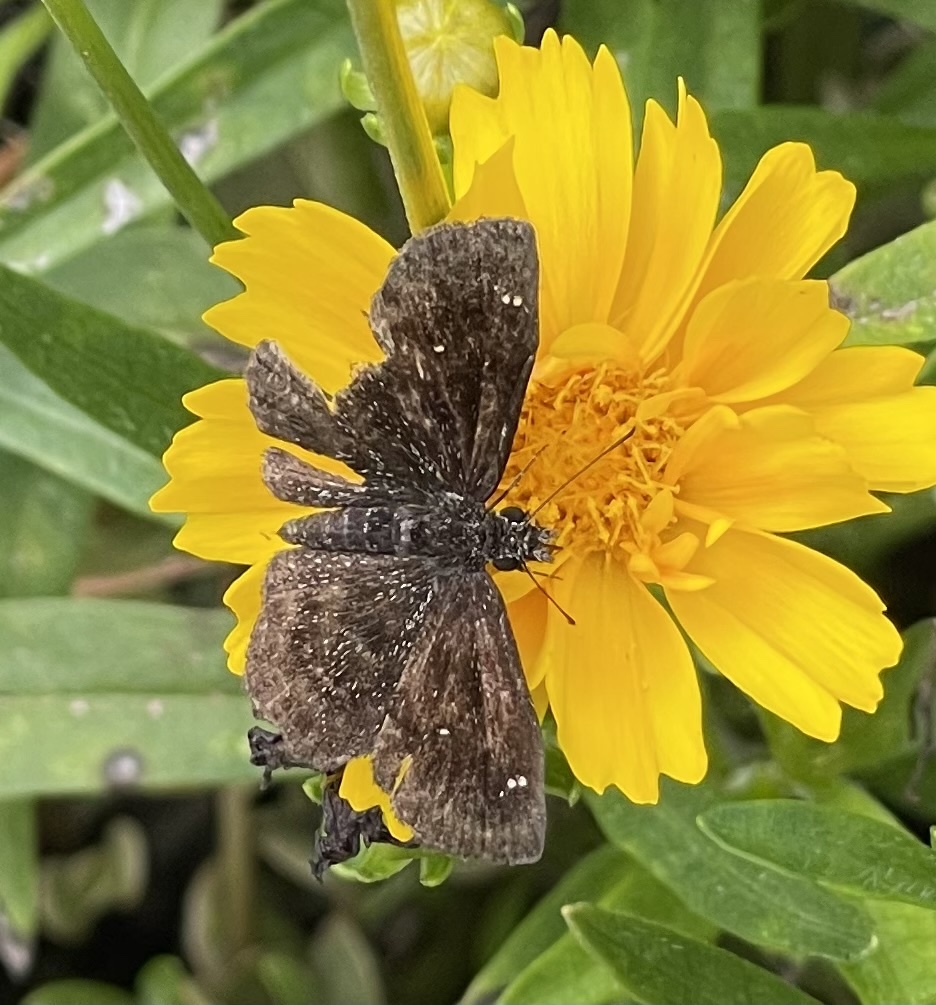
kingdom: Animalia
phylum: Arthropoda
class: Insecta
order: Lepidoptera
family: Hesperiidae
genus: Staphylus
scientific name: Staphylus mazans
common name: Mazans scallopwing
